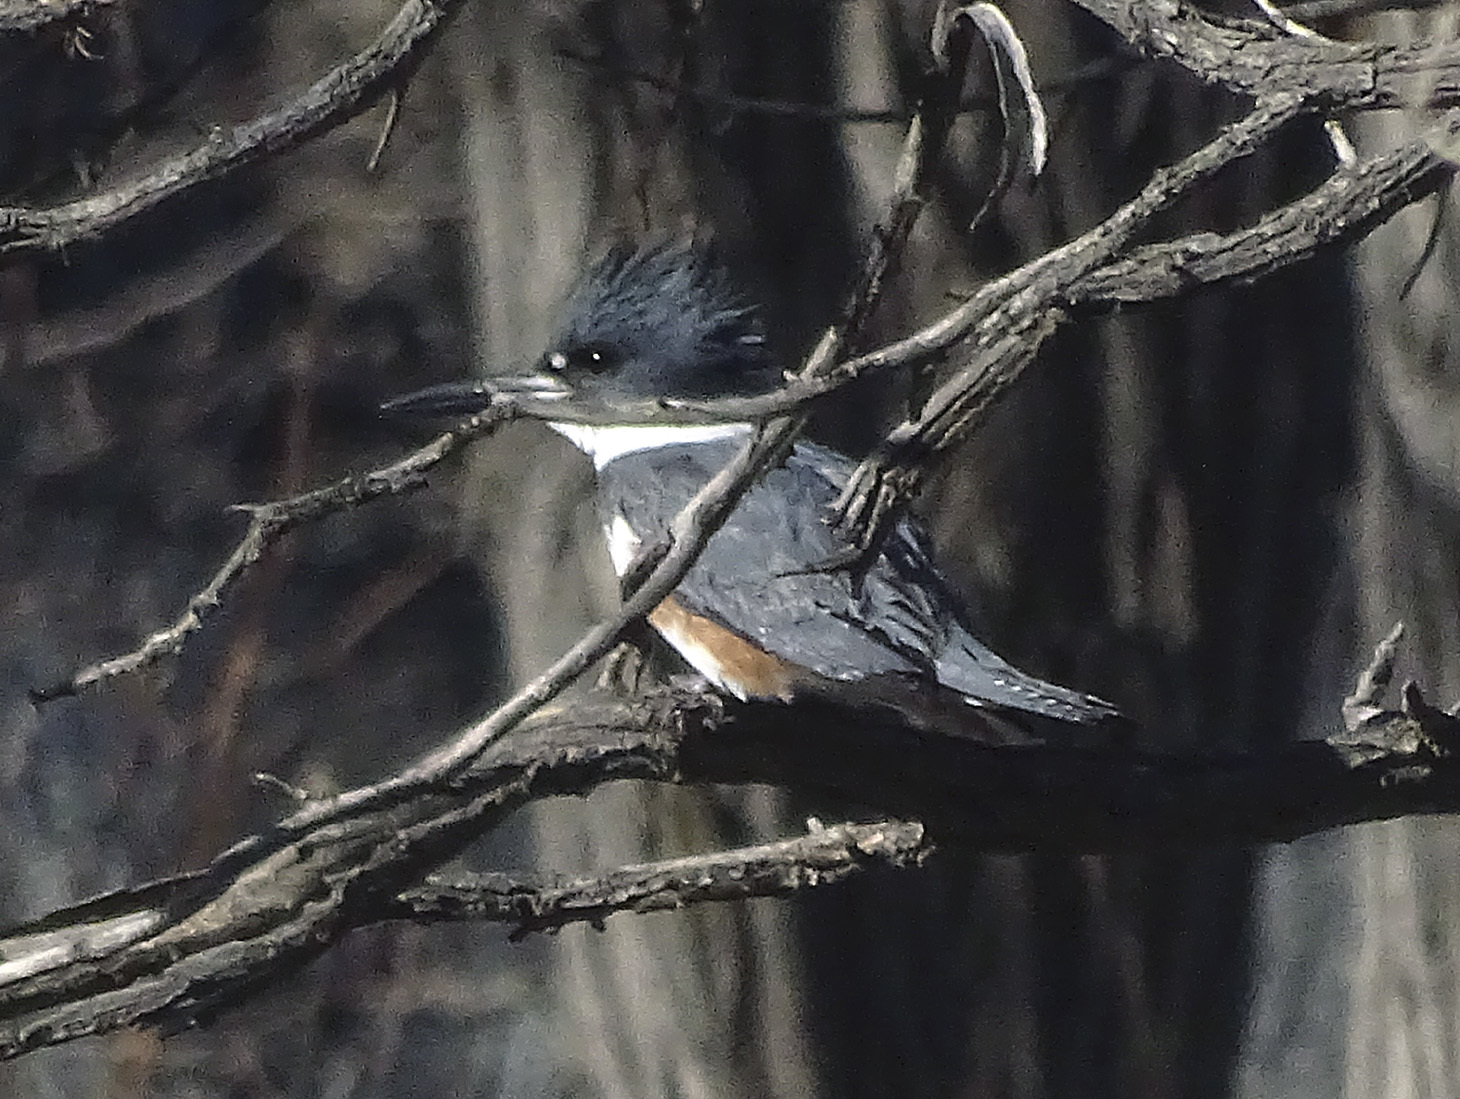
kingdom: Animalia
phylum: Chordata
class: Aves
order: Coraciiformes
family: Alcedinidae
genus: Megaceryle
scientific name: Megaceryle alcyon
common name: Belted kingfisher
